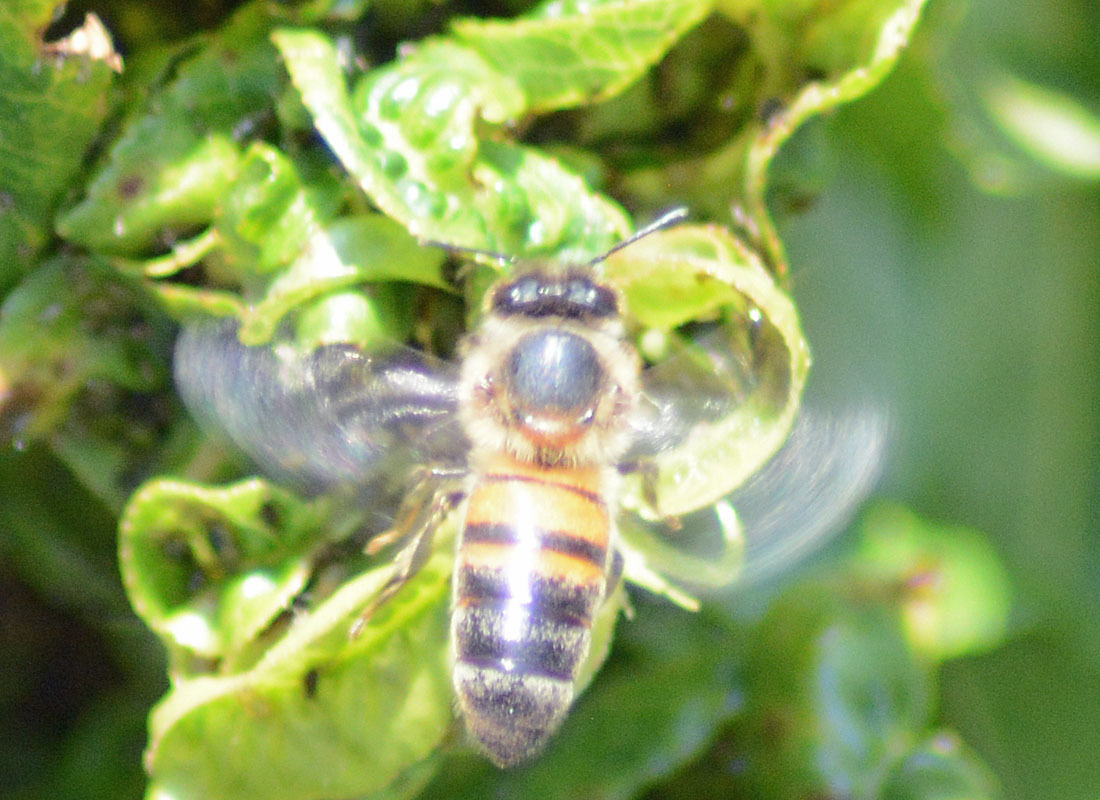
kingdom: Animalia
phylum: Arthropoda
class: Insecta
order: Hymenoptera
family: Apidae
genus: Apis
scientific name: Apis mellifera
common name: Honey bee
